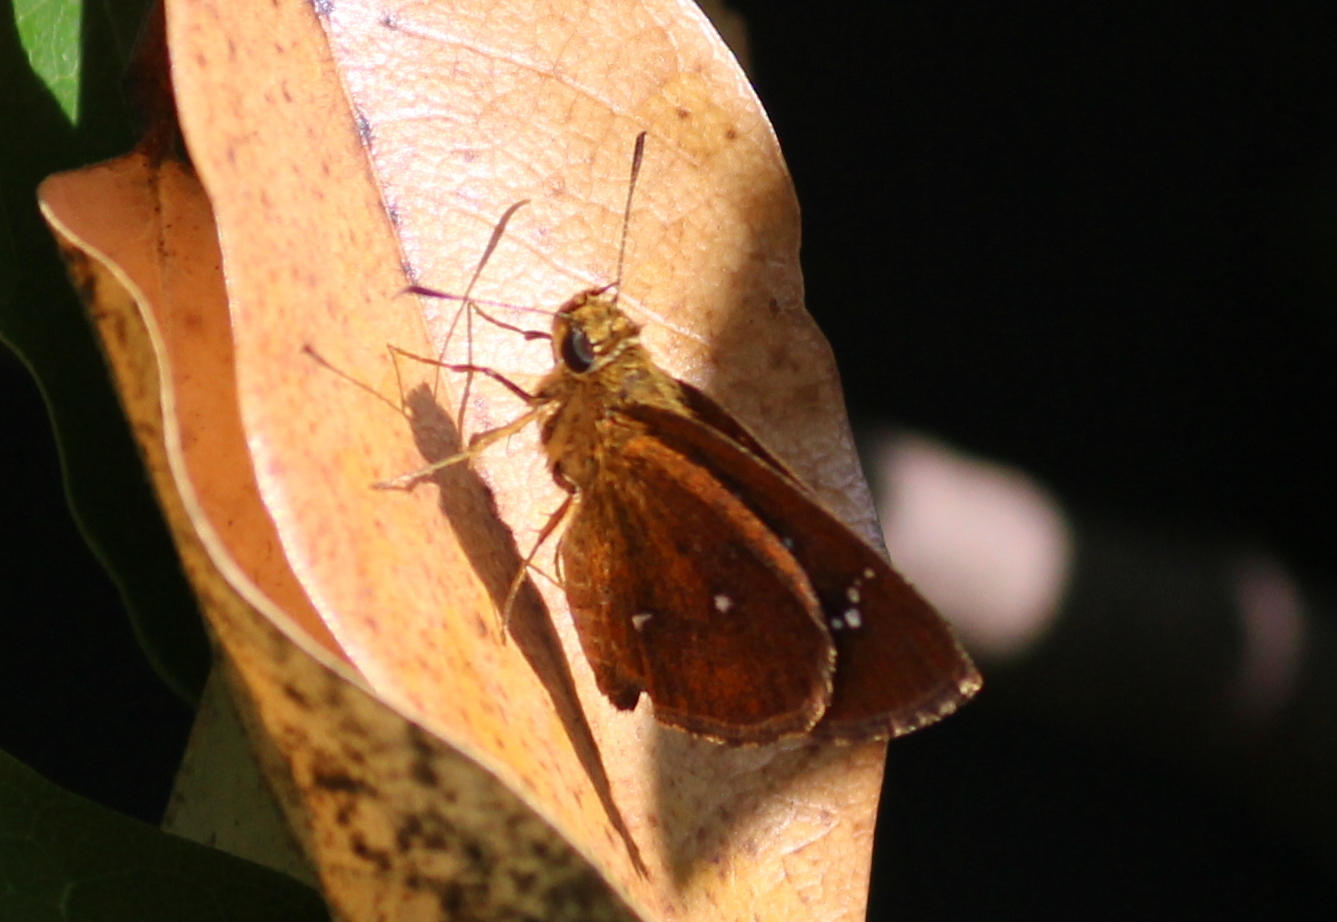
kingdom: Animalia
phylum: Arthropoda
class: Insecta
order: Lepidoptera
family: Hesperiidae
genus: Iambrix
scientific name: Iambrix salsala
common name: Chestnut bob
